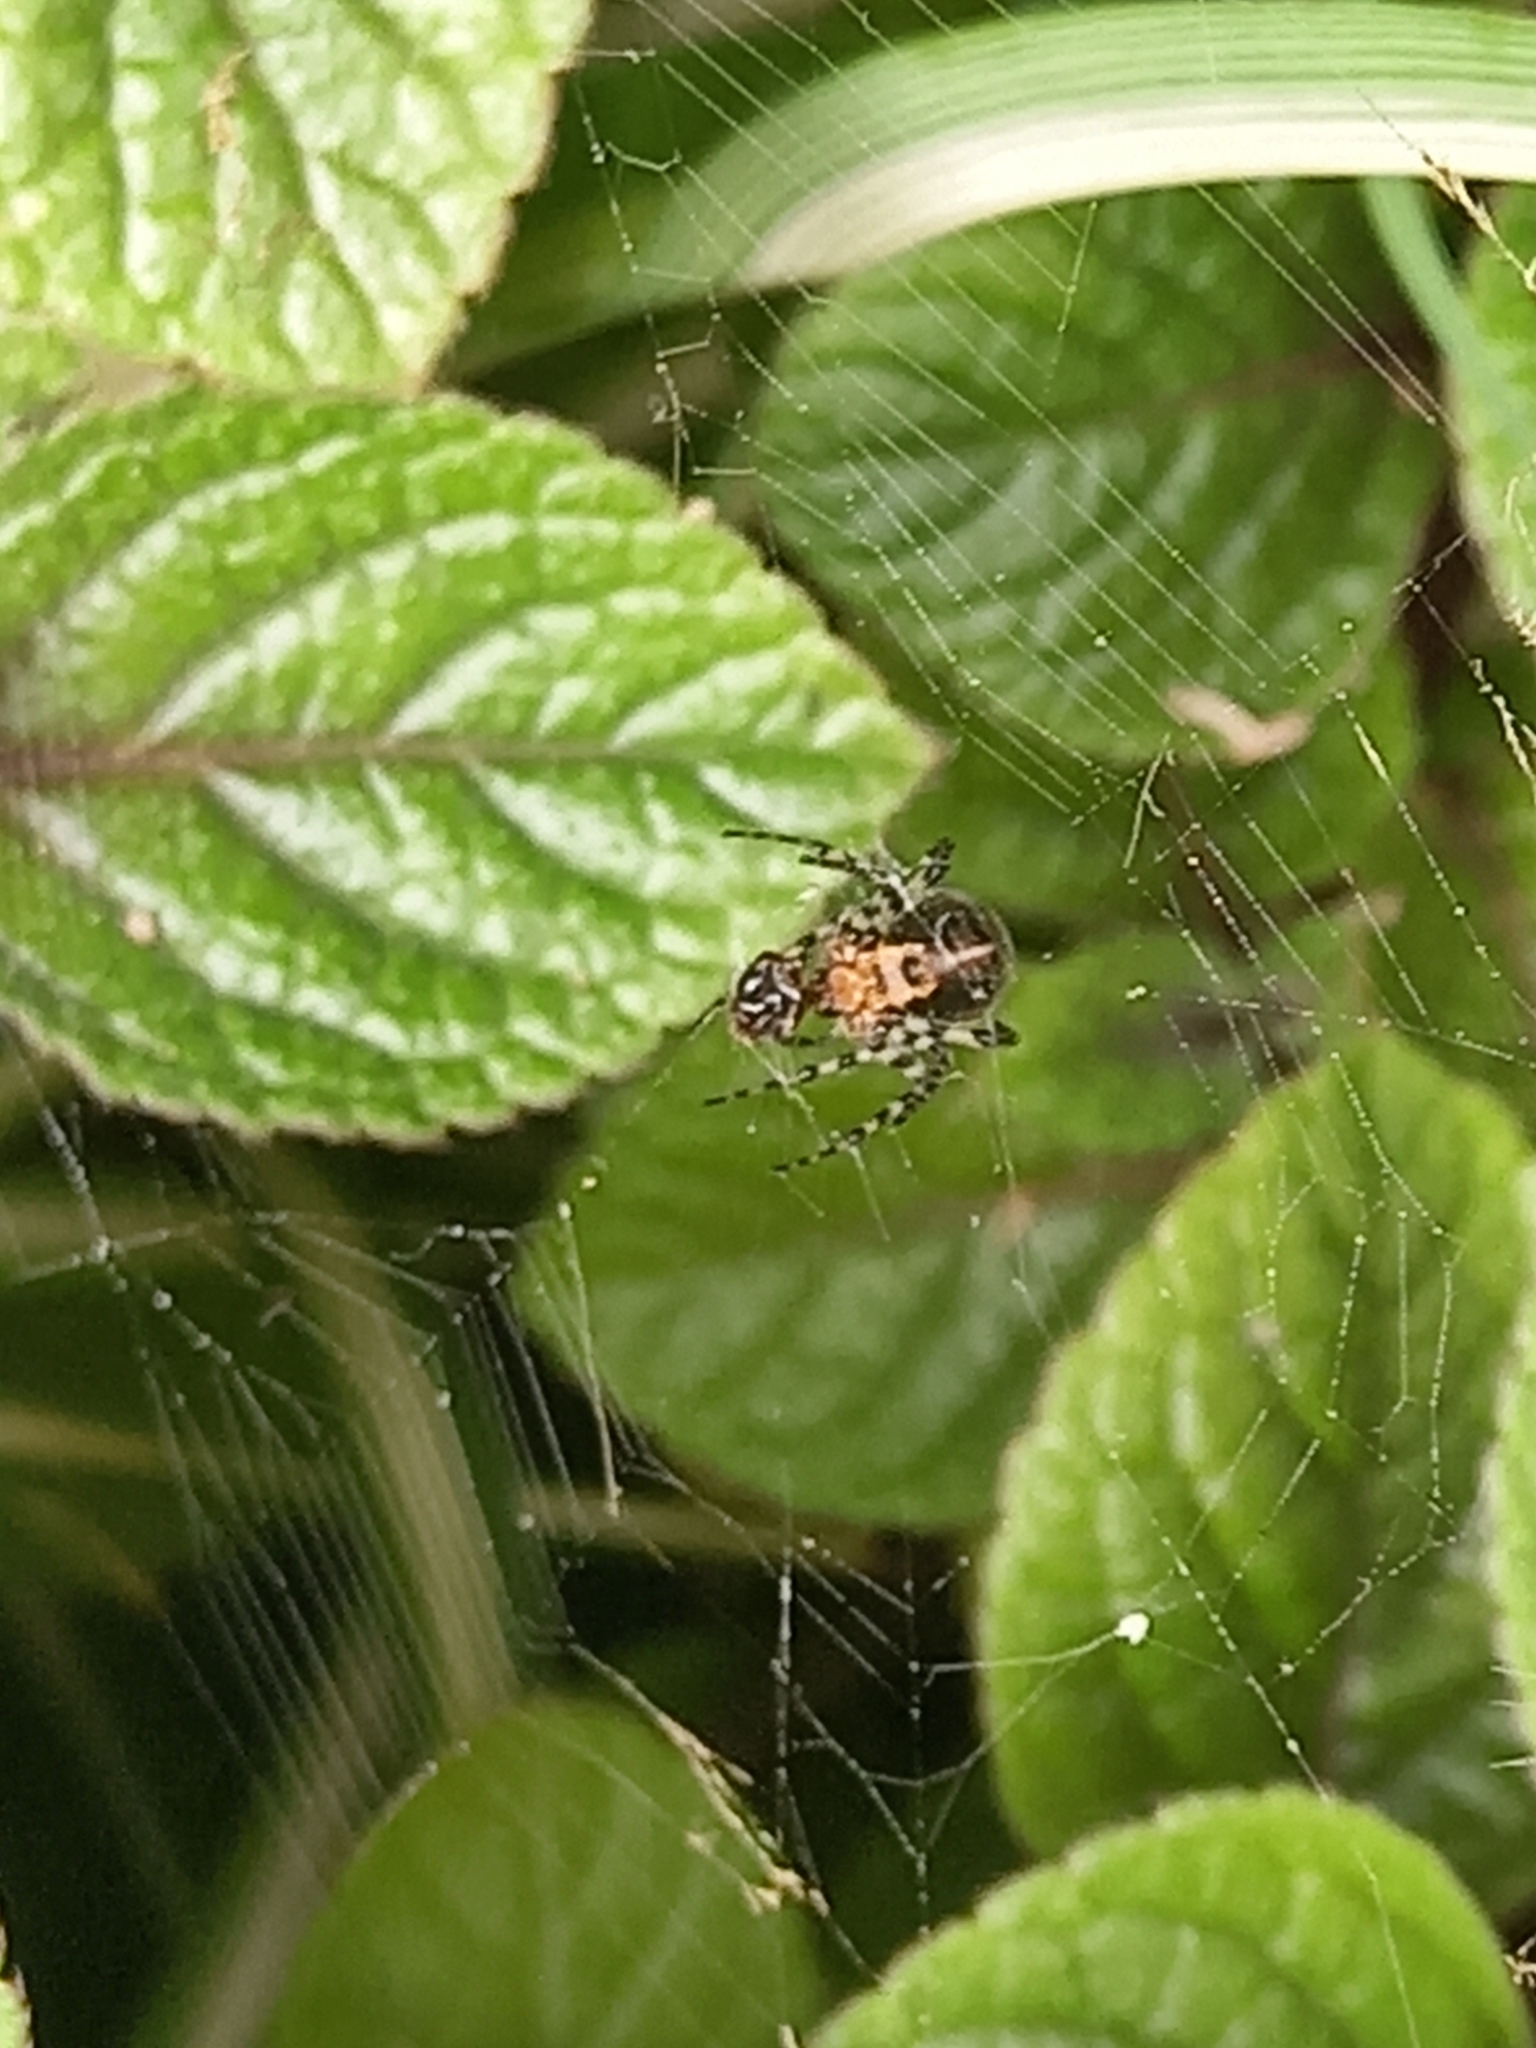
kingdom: Animalia
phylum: Arthropoda
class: Arachnida
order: Araneae
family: Araneidae
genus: Alpaida
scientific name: Alpaida gallardoi
